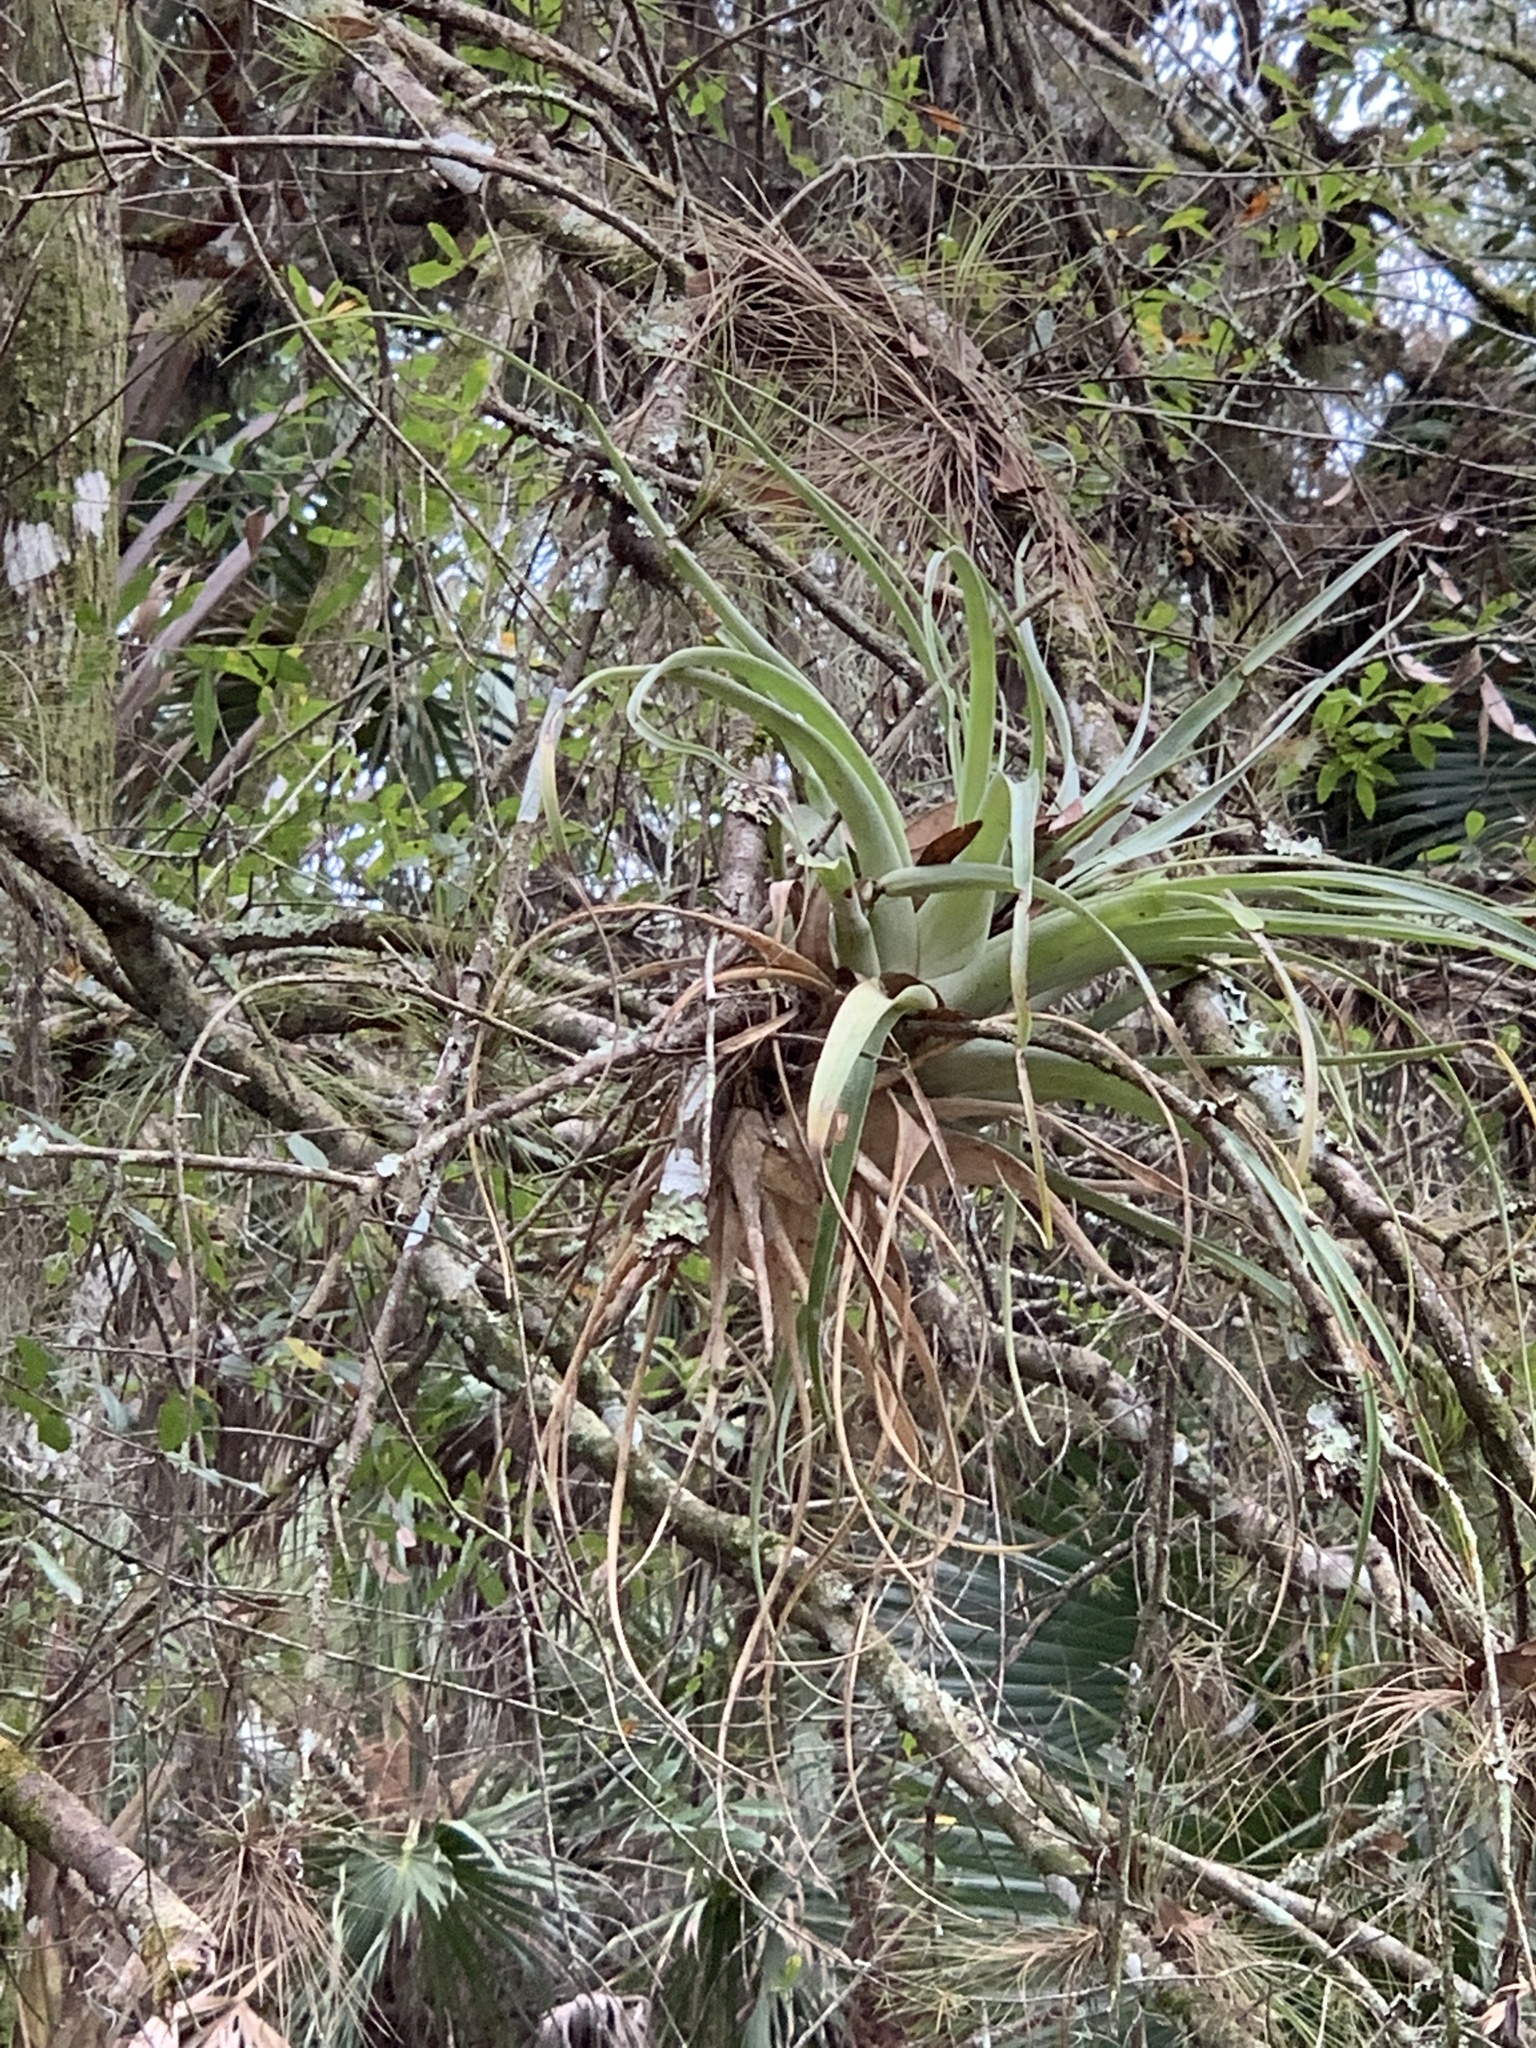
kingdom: Plantae
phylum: Tracheophyta
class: Liliopsida
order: Poales
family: Bromeliaceae
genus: Tillandsia
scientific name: Tillandsia utriculata
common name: Wild pine
